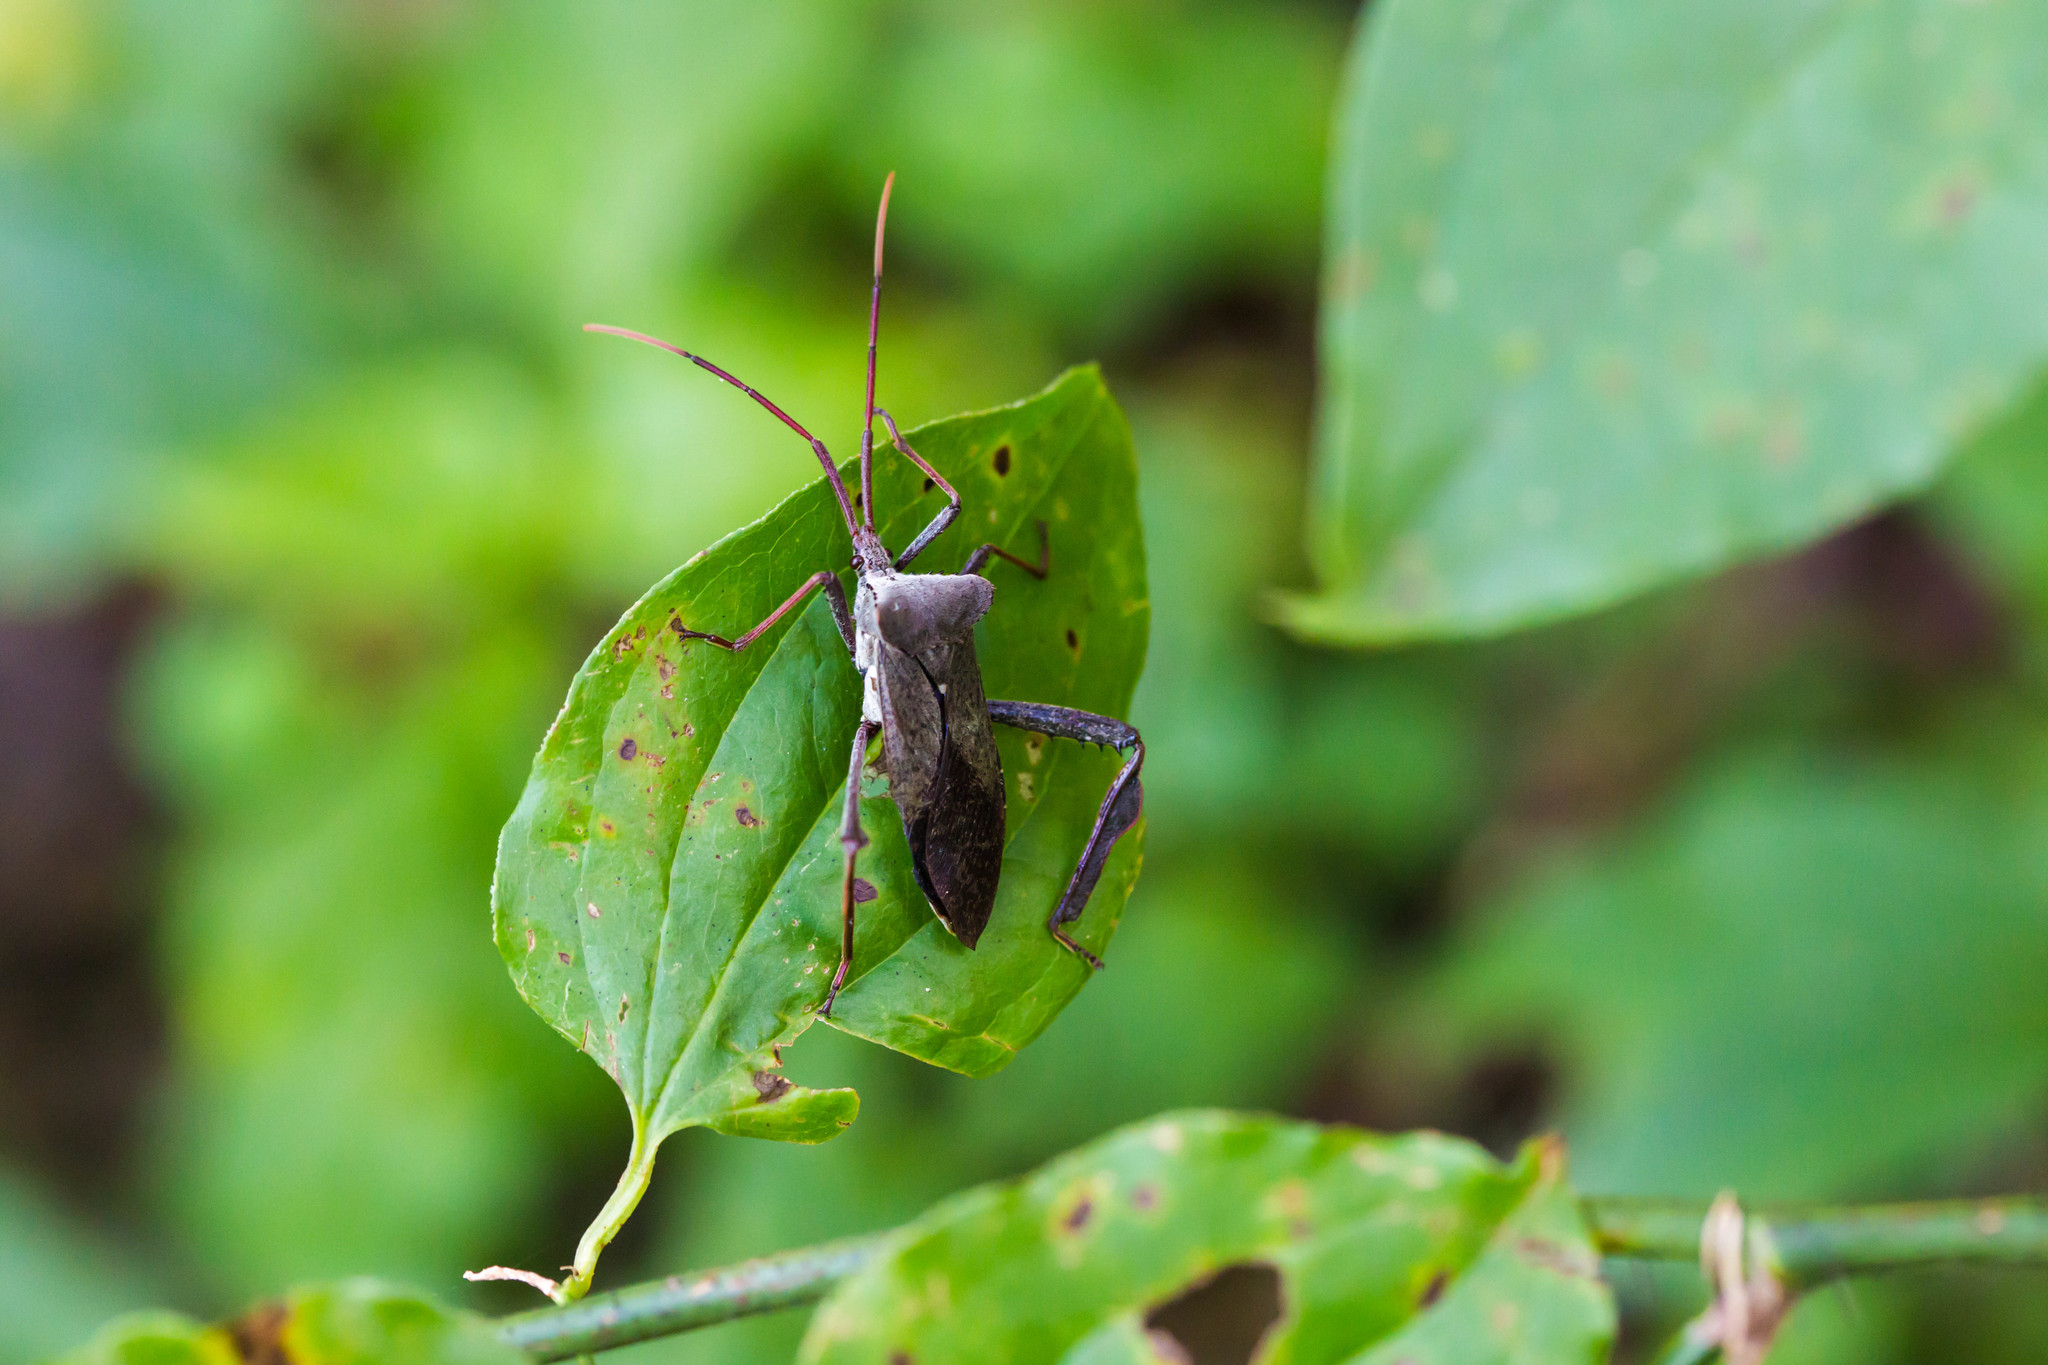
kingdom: Animalia
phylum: Arthropoda
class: Insecta
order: Hemiptera
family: Coreidae
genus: Acanthocephala
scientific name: Acanthocephala declivis
